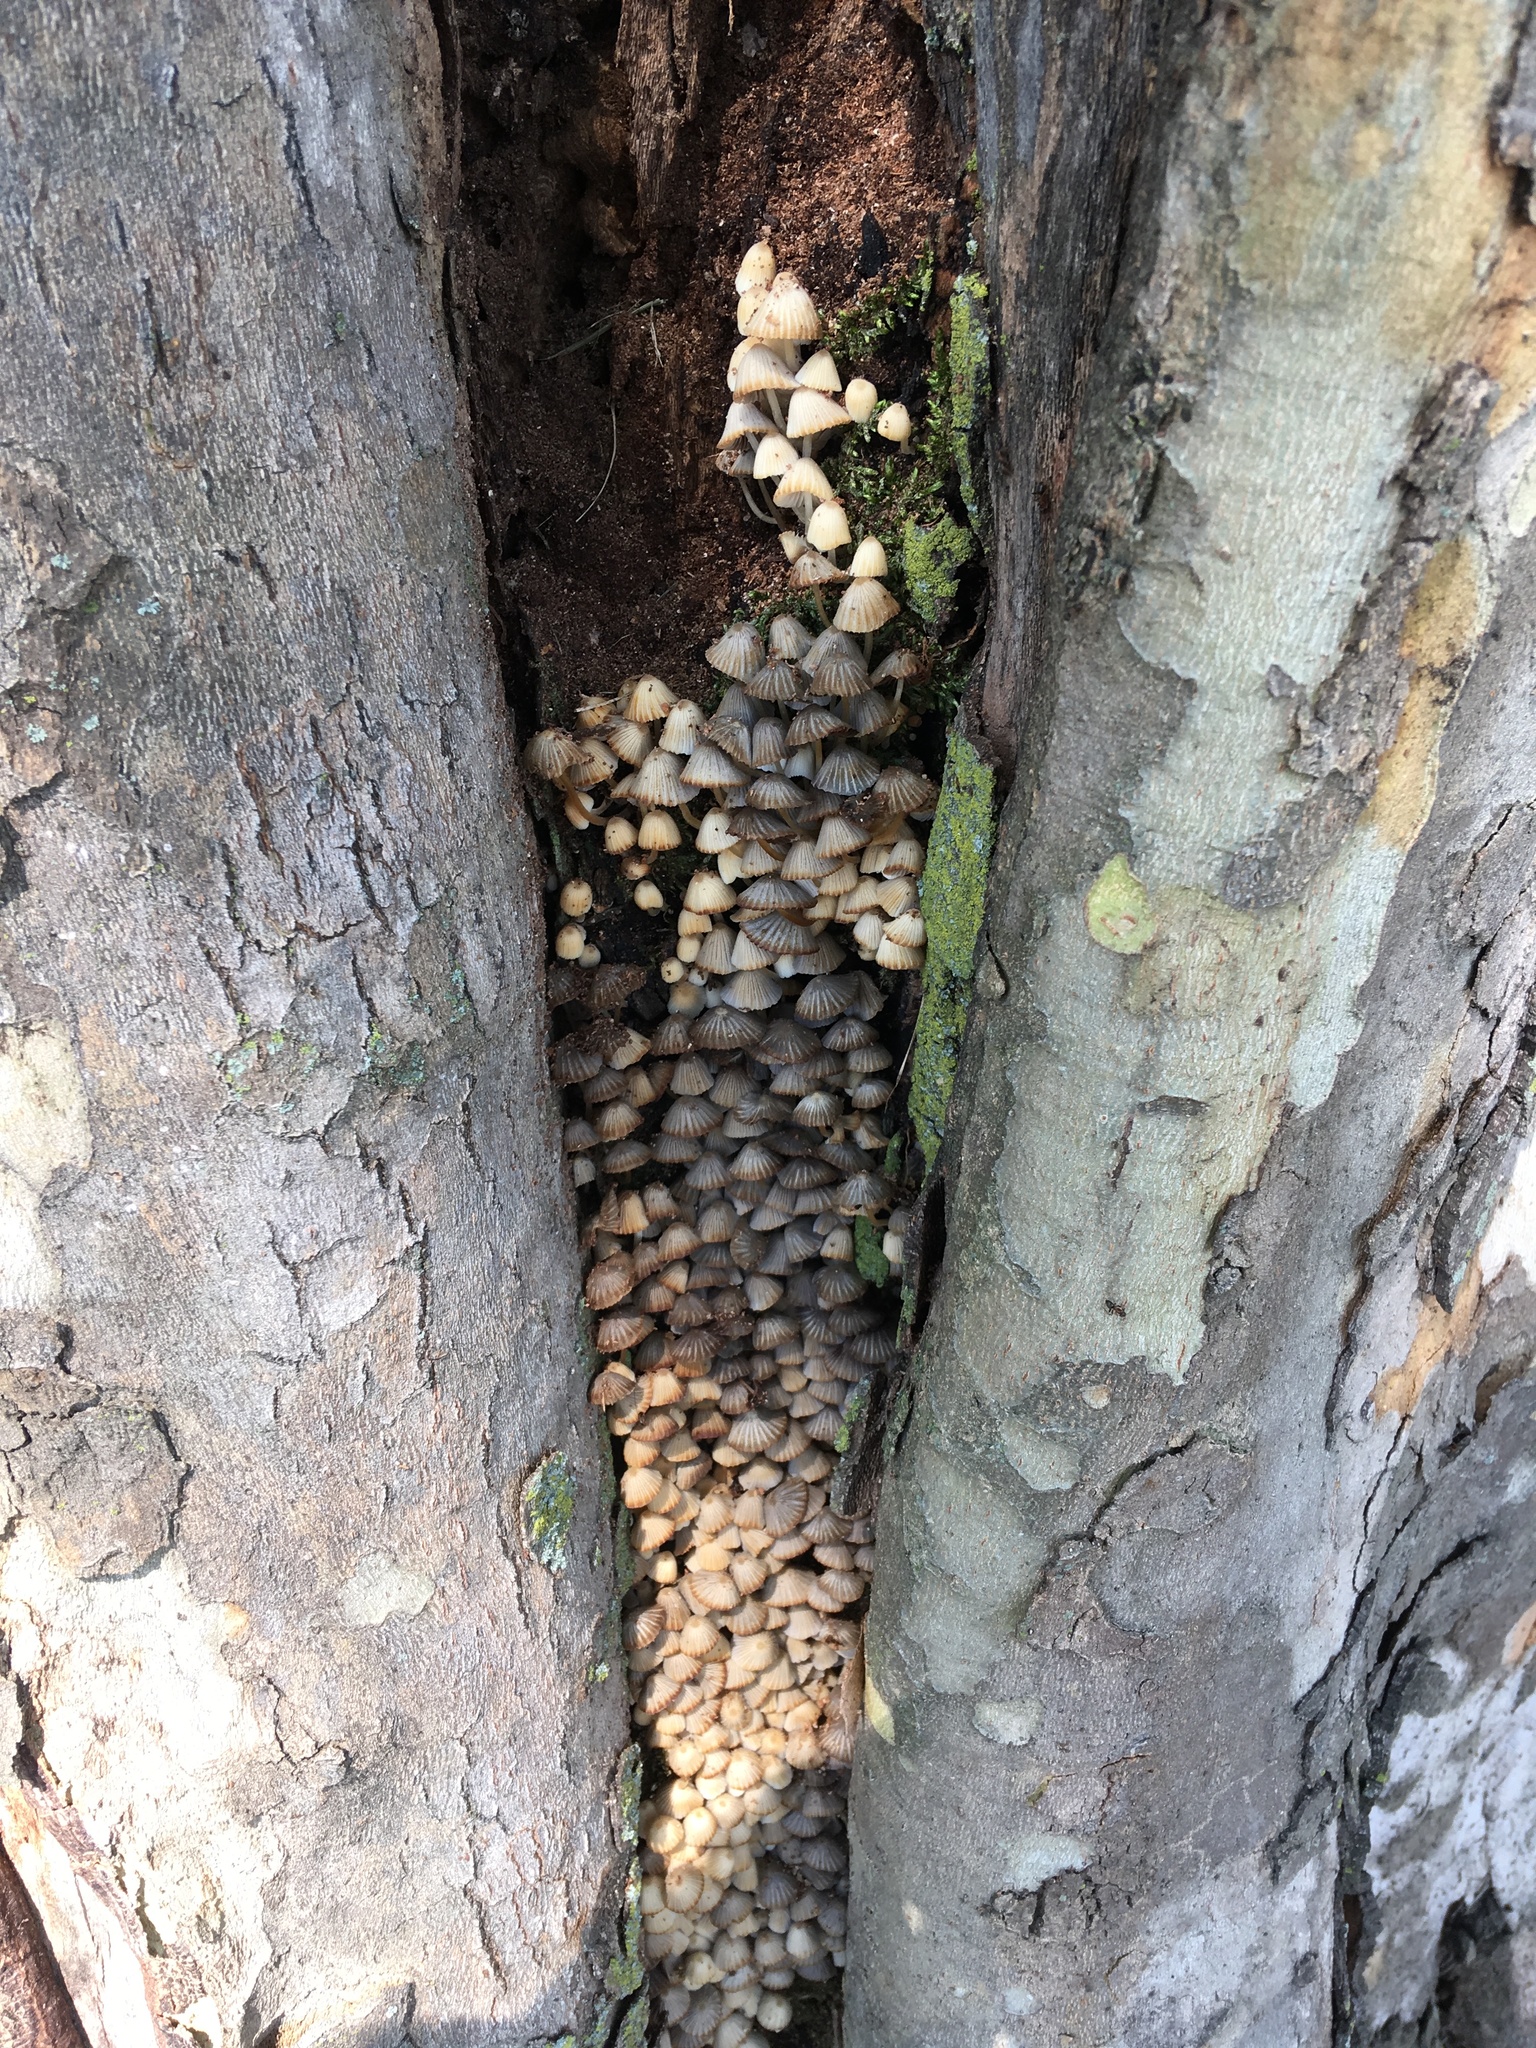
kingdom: Fungi
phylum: Basidiomycota
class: Agaricomycetes
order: Agaricales
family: Psathyrellaceae
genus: Coprinellus
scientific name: Coprinellus disseminatus
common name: Fairies' bonnets
